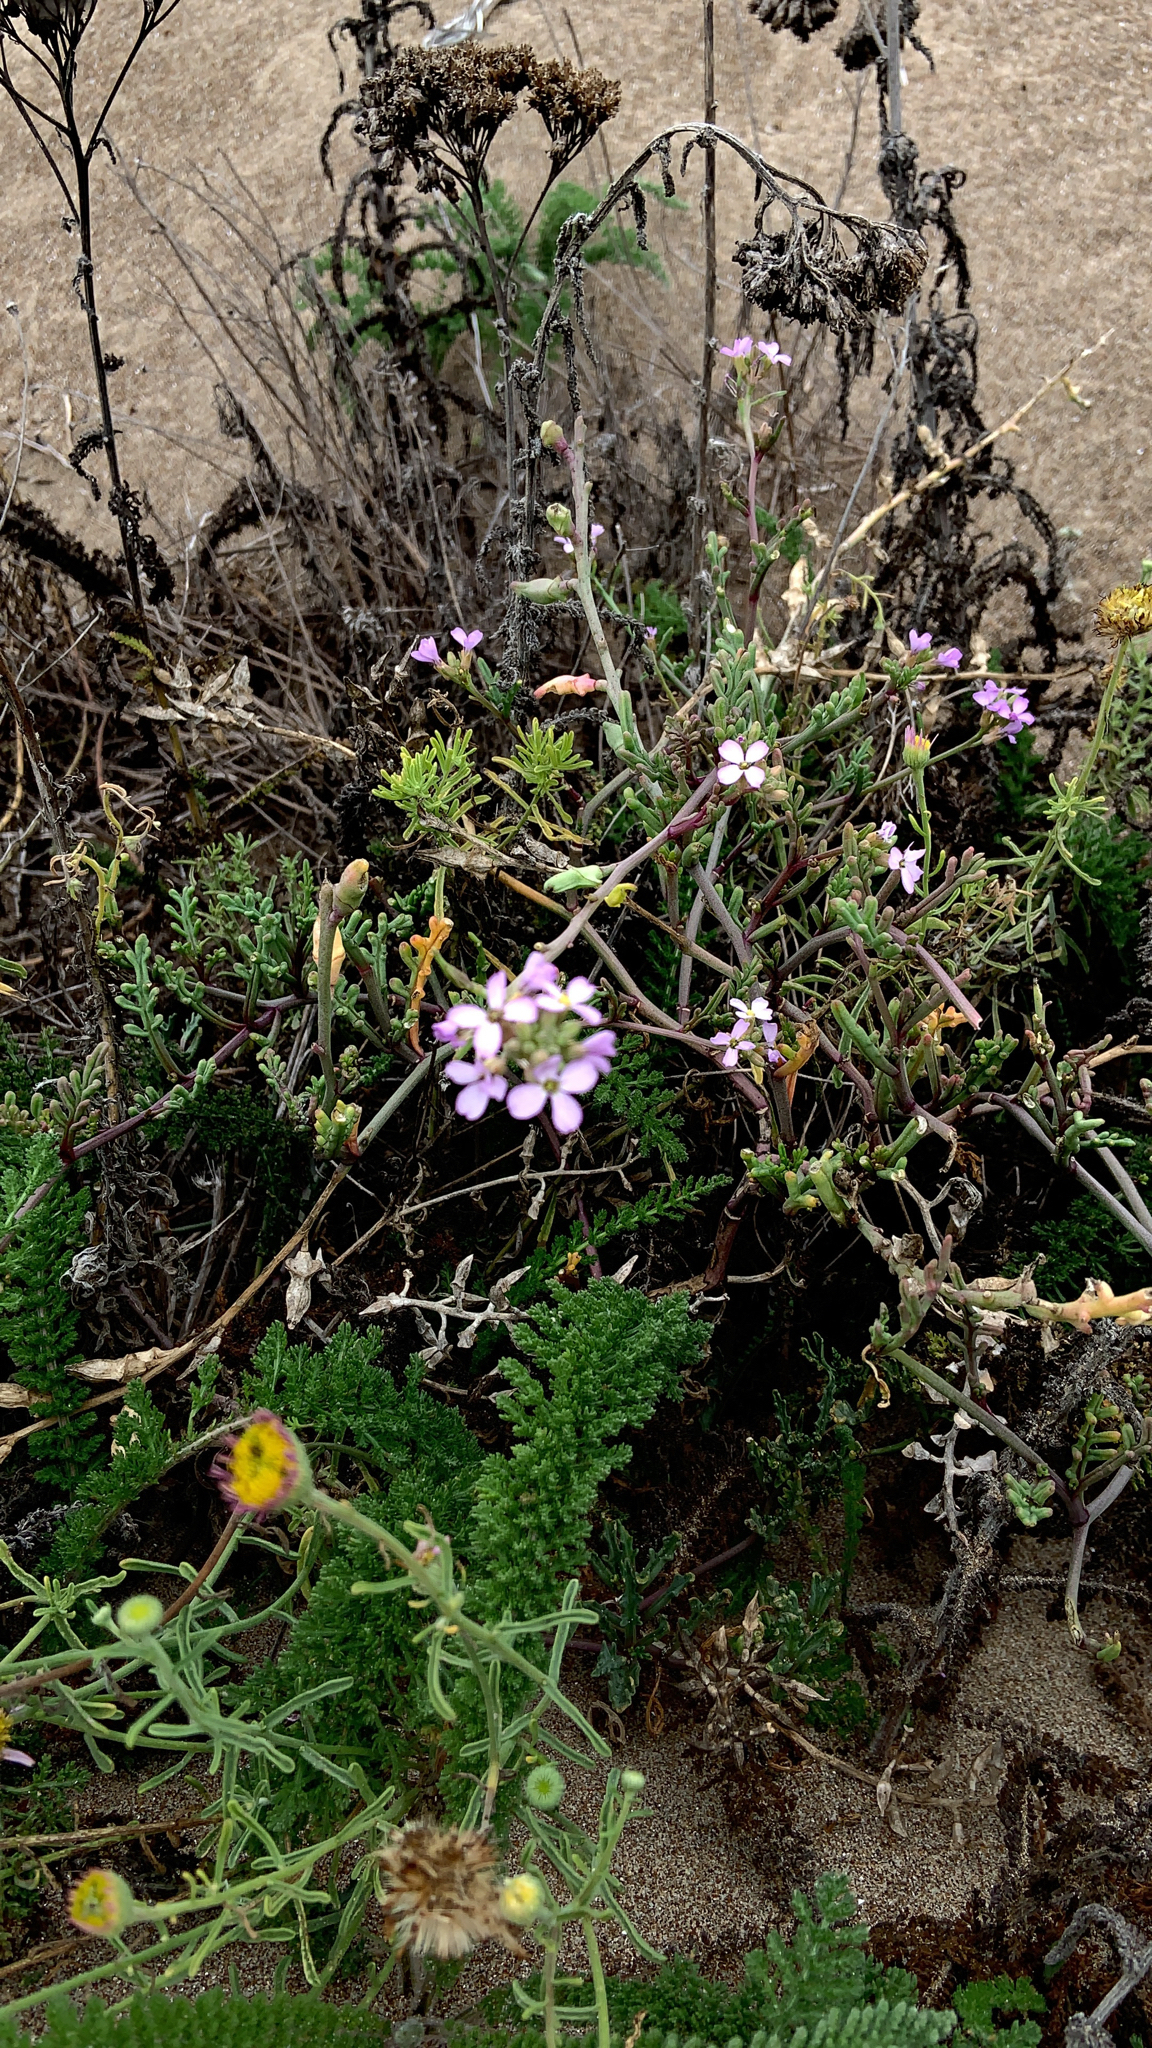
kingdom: Plantae
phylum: Tracheophyta
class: Magnoliopsida
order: Brassicales
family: Brassicaceae
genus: Cakile
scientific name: Cakile maritima
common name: Sea rocket
